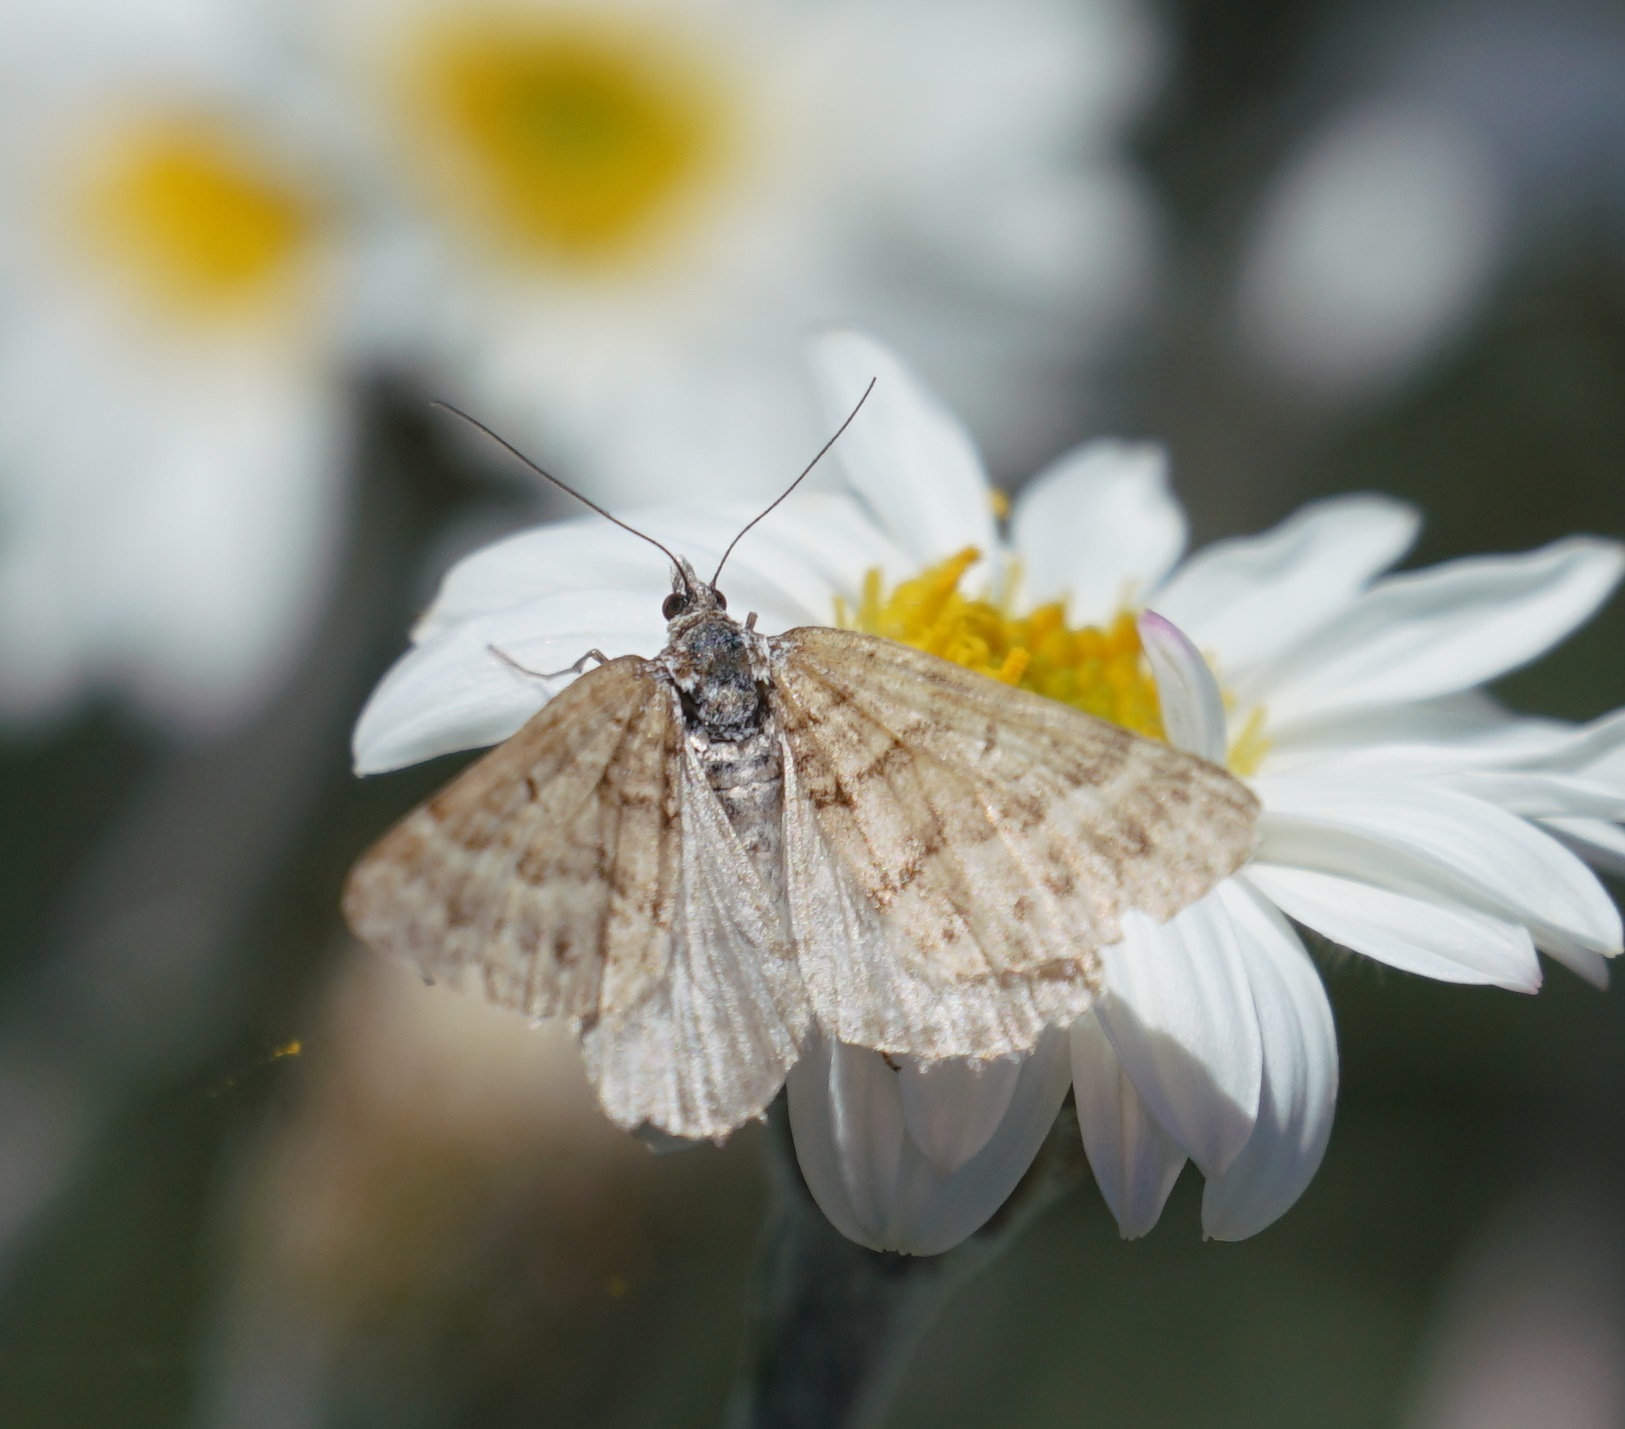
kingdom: Animalia
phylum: Arthropoda
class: Insecta
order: Lepidoptera
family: Geometridae
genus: Chrysolarentia
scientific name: Chrysolarentia nephodes
